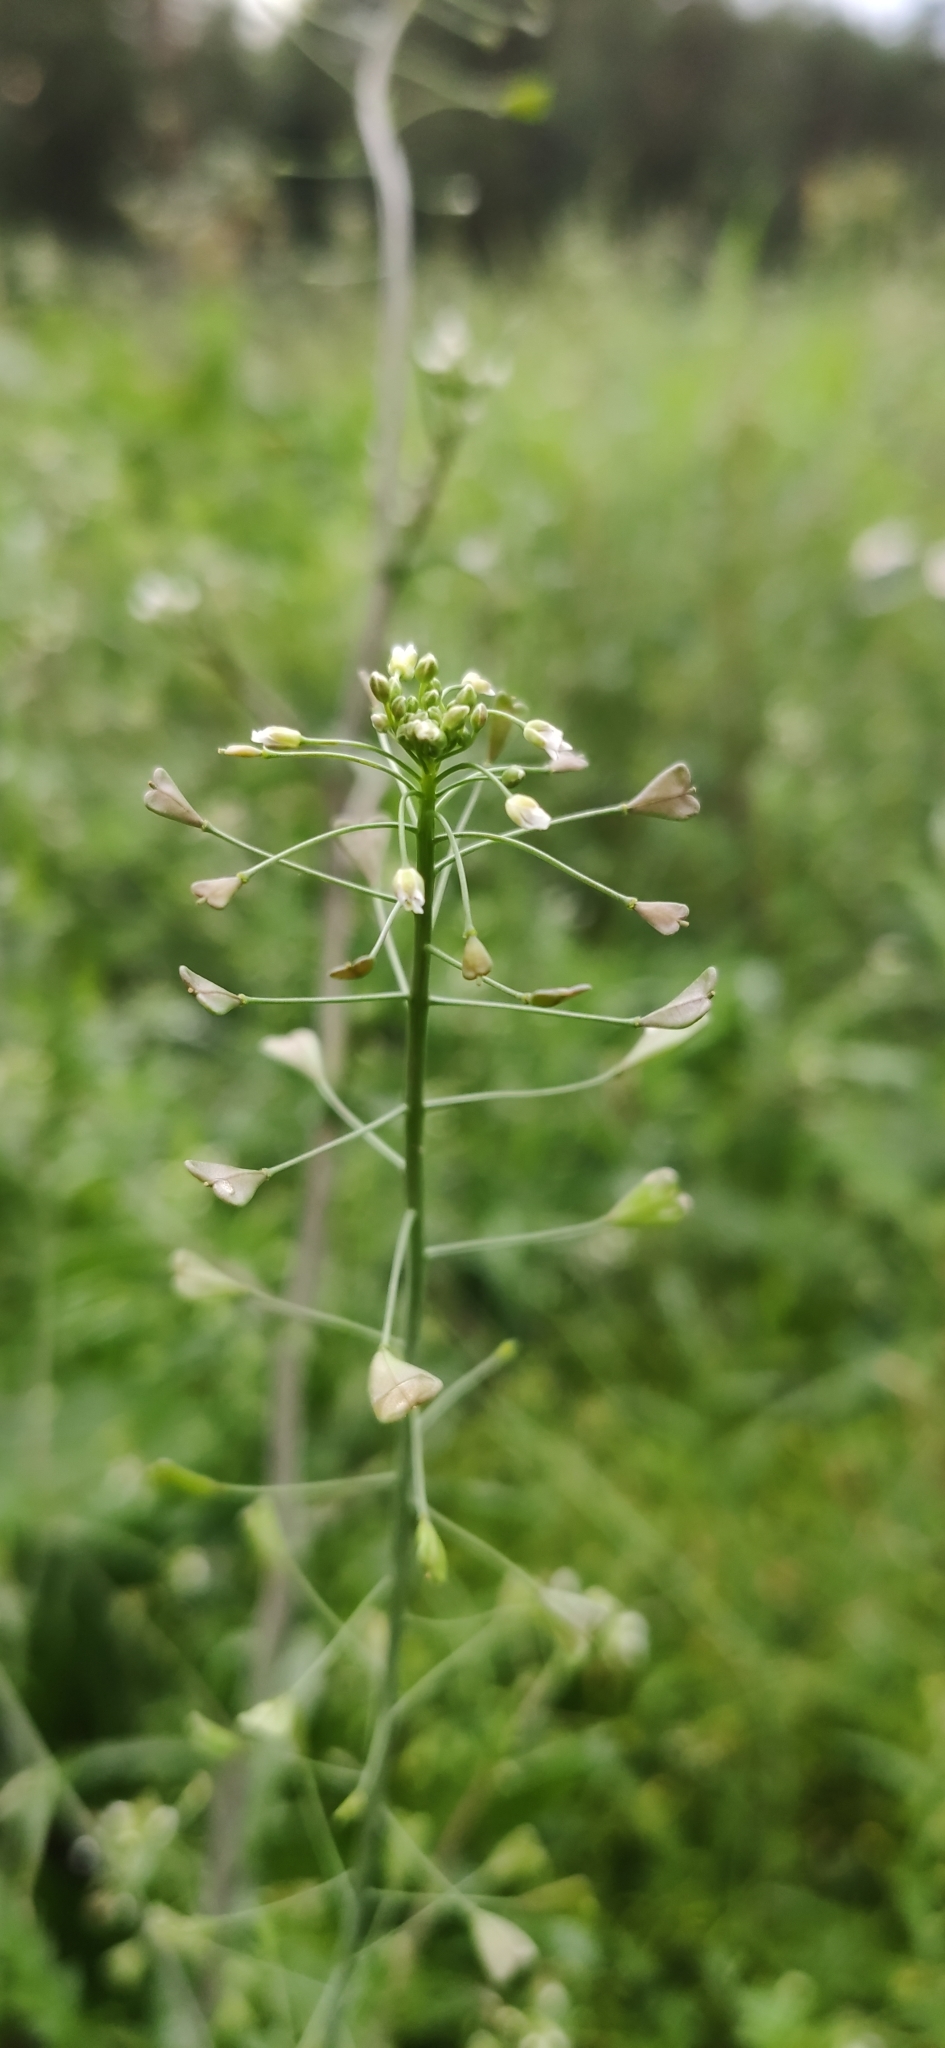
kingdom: Plantae
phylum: Tracheophyta
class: Magnoliopsida
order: Brassicales
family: Brassicaceae
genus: Capsella
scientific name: Capsella bursa-pastoris
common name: Shepherd's purse
